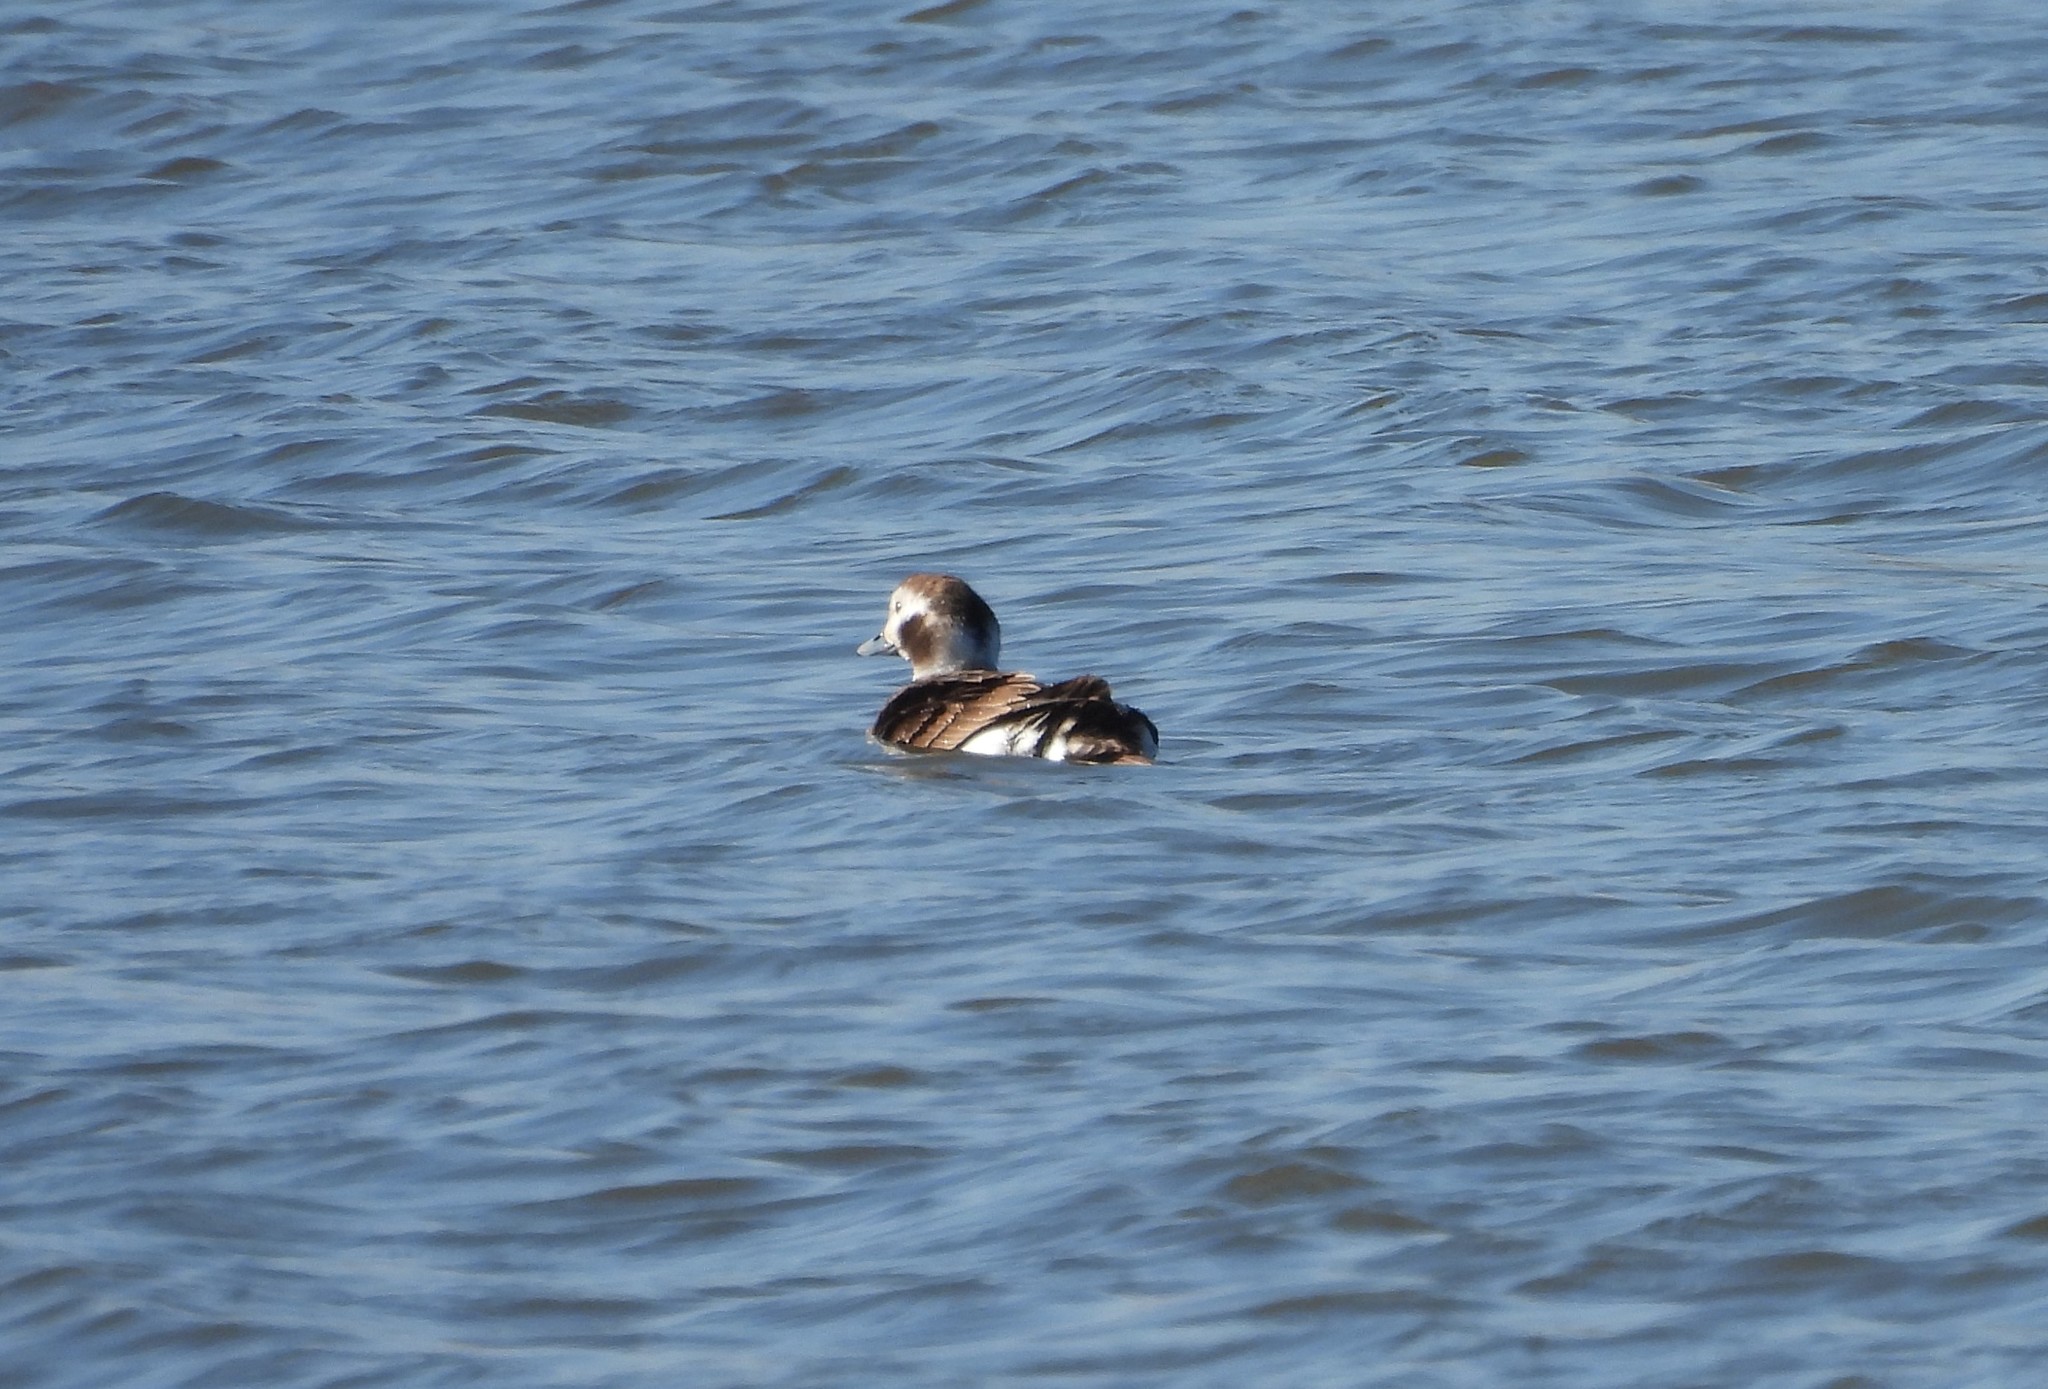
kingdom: Animalia
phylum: Chordata
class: Aves
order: Anseriformes
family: Anatidae
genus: Clangula
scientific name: Clangula hyemalis
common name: Long-tailed duck
